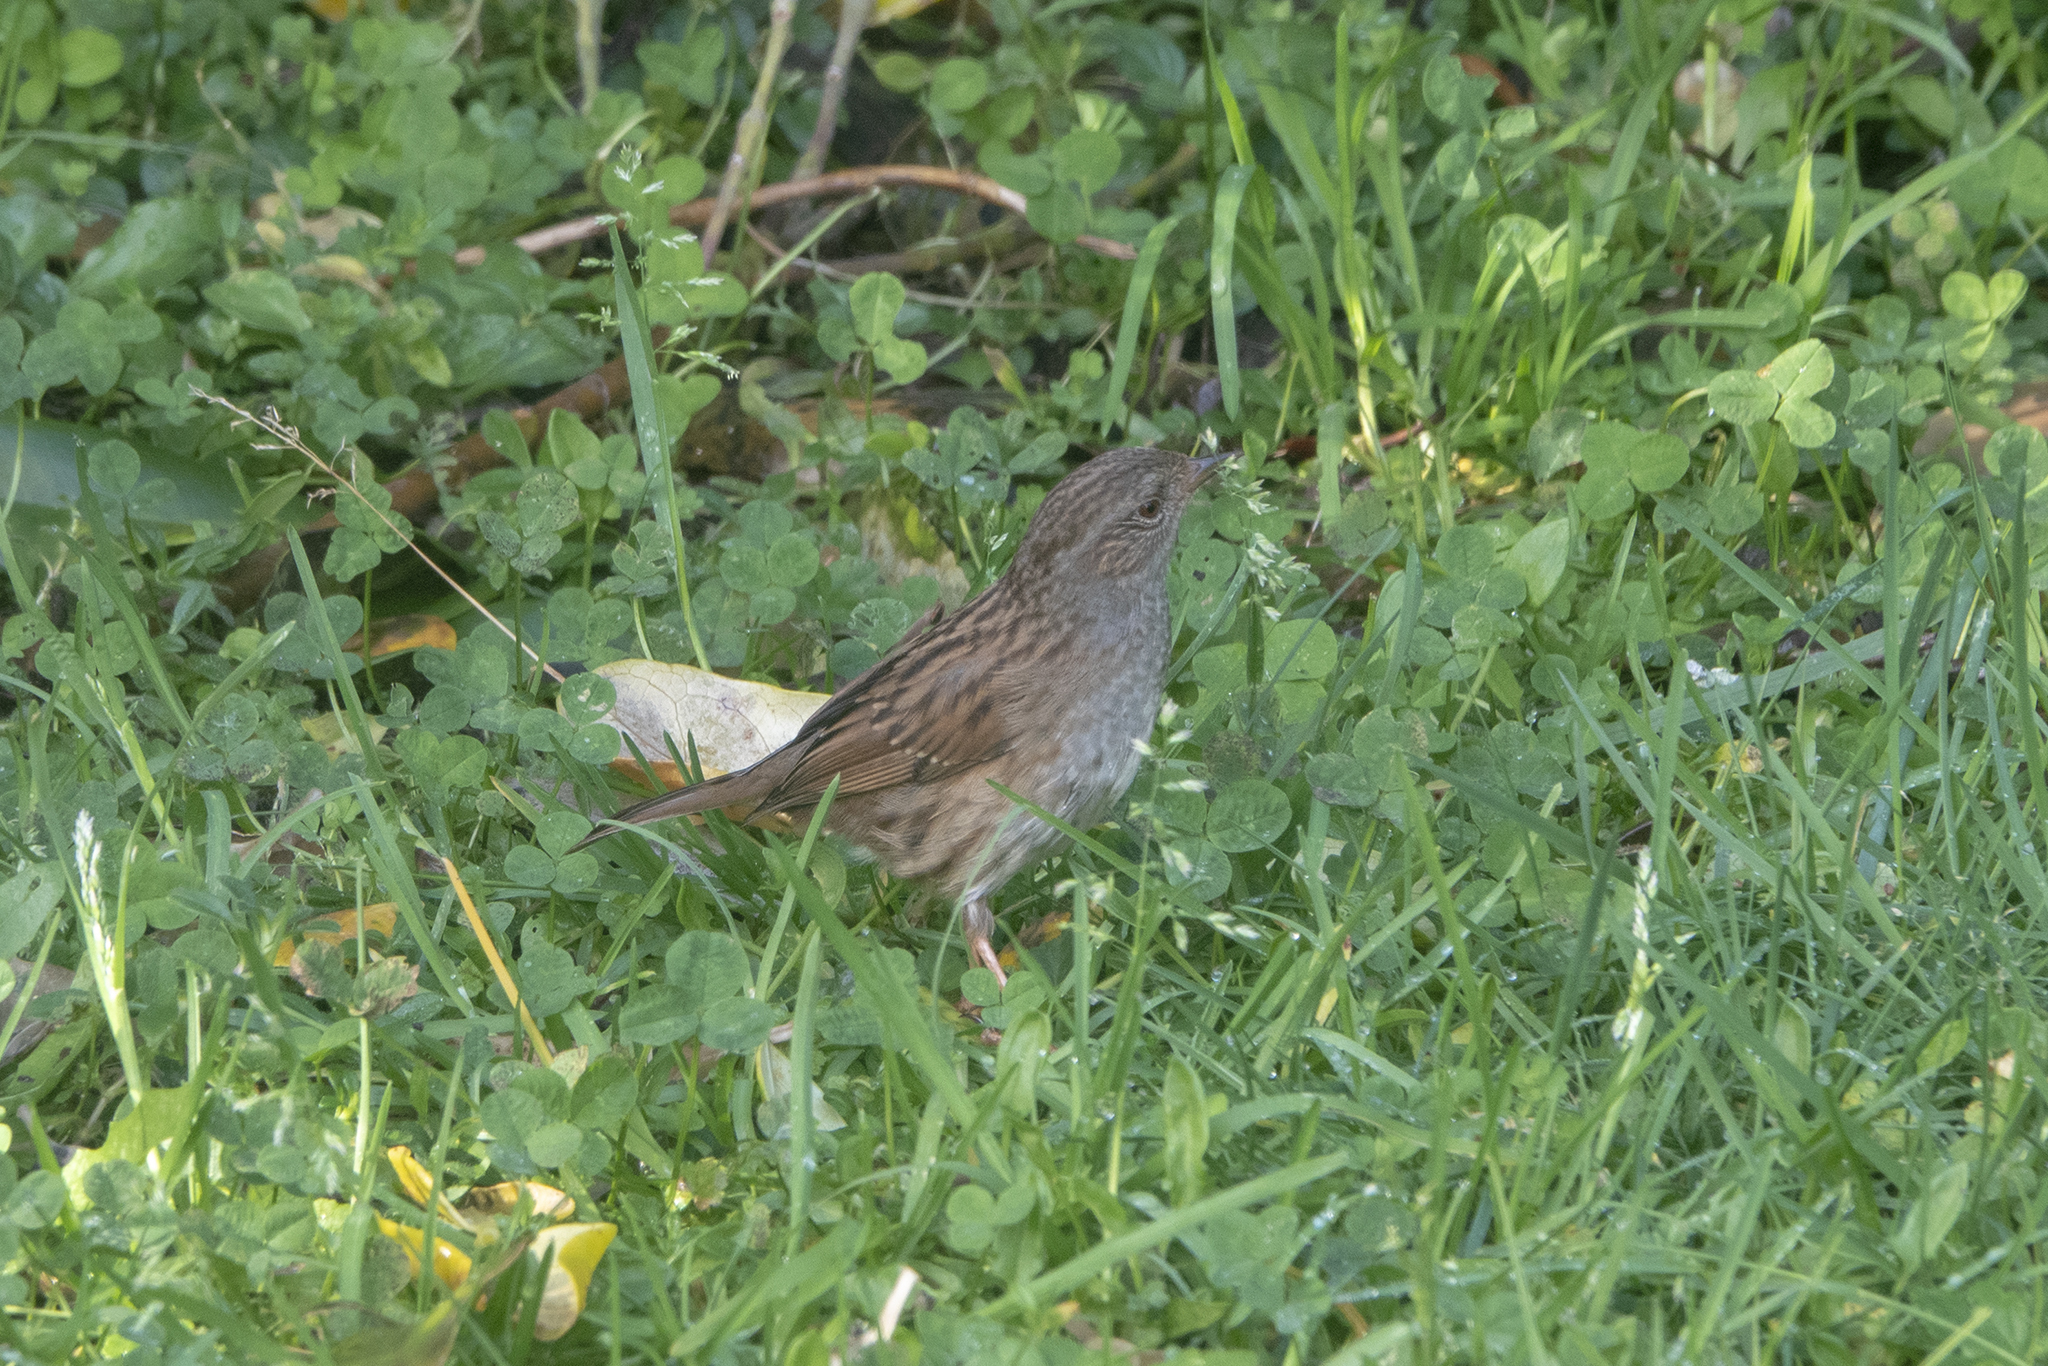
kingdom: Animalia
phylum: Chordata
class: Aves
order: Passeriformes
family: Prunellidae
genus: Prunella
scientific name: Prunella modularis
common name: Dunnock
